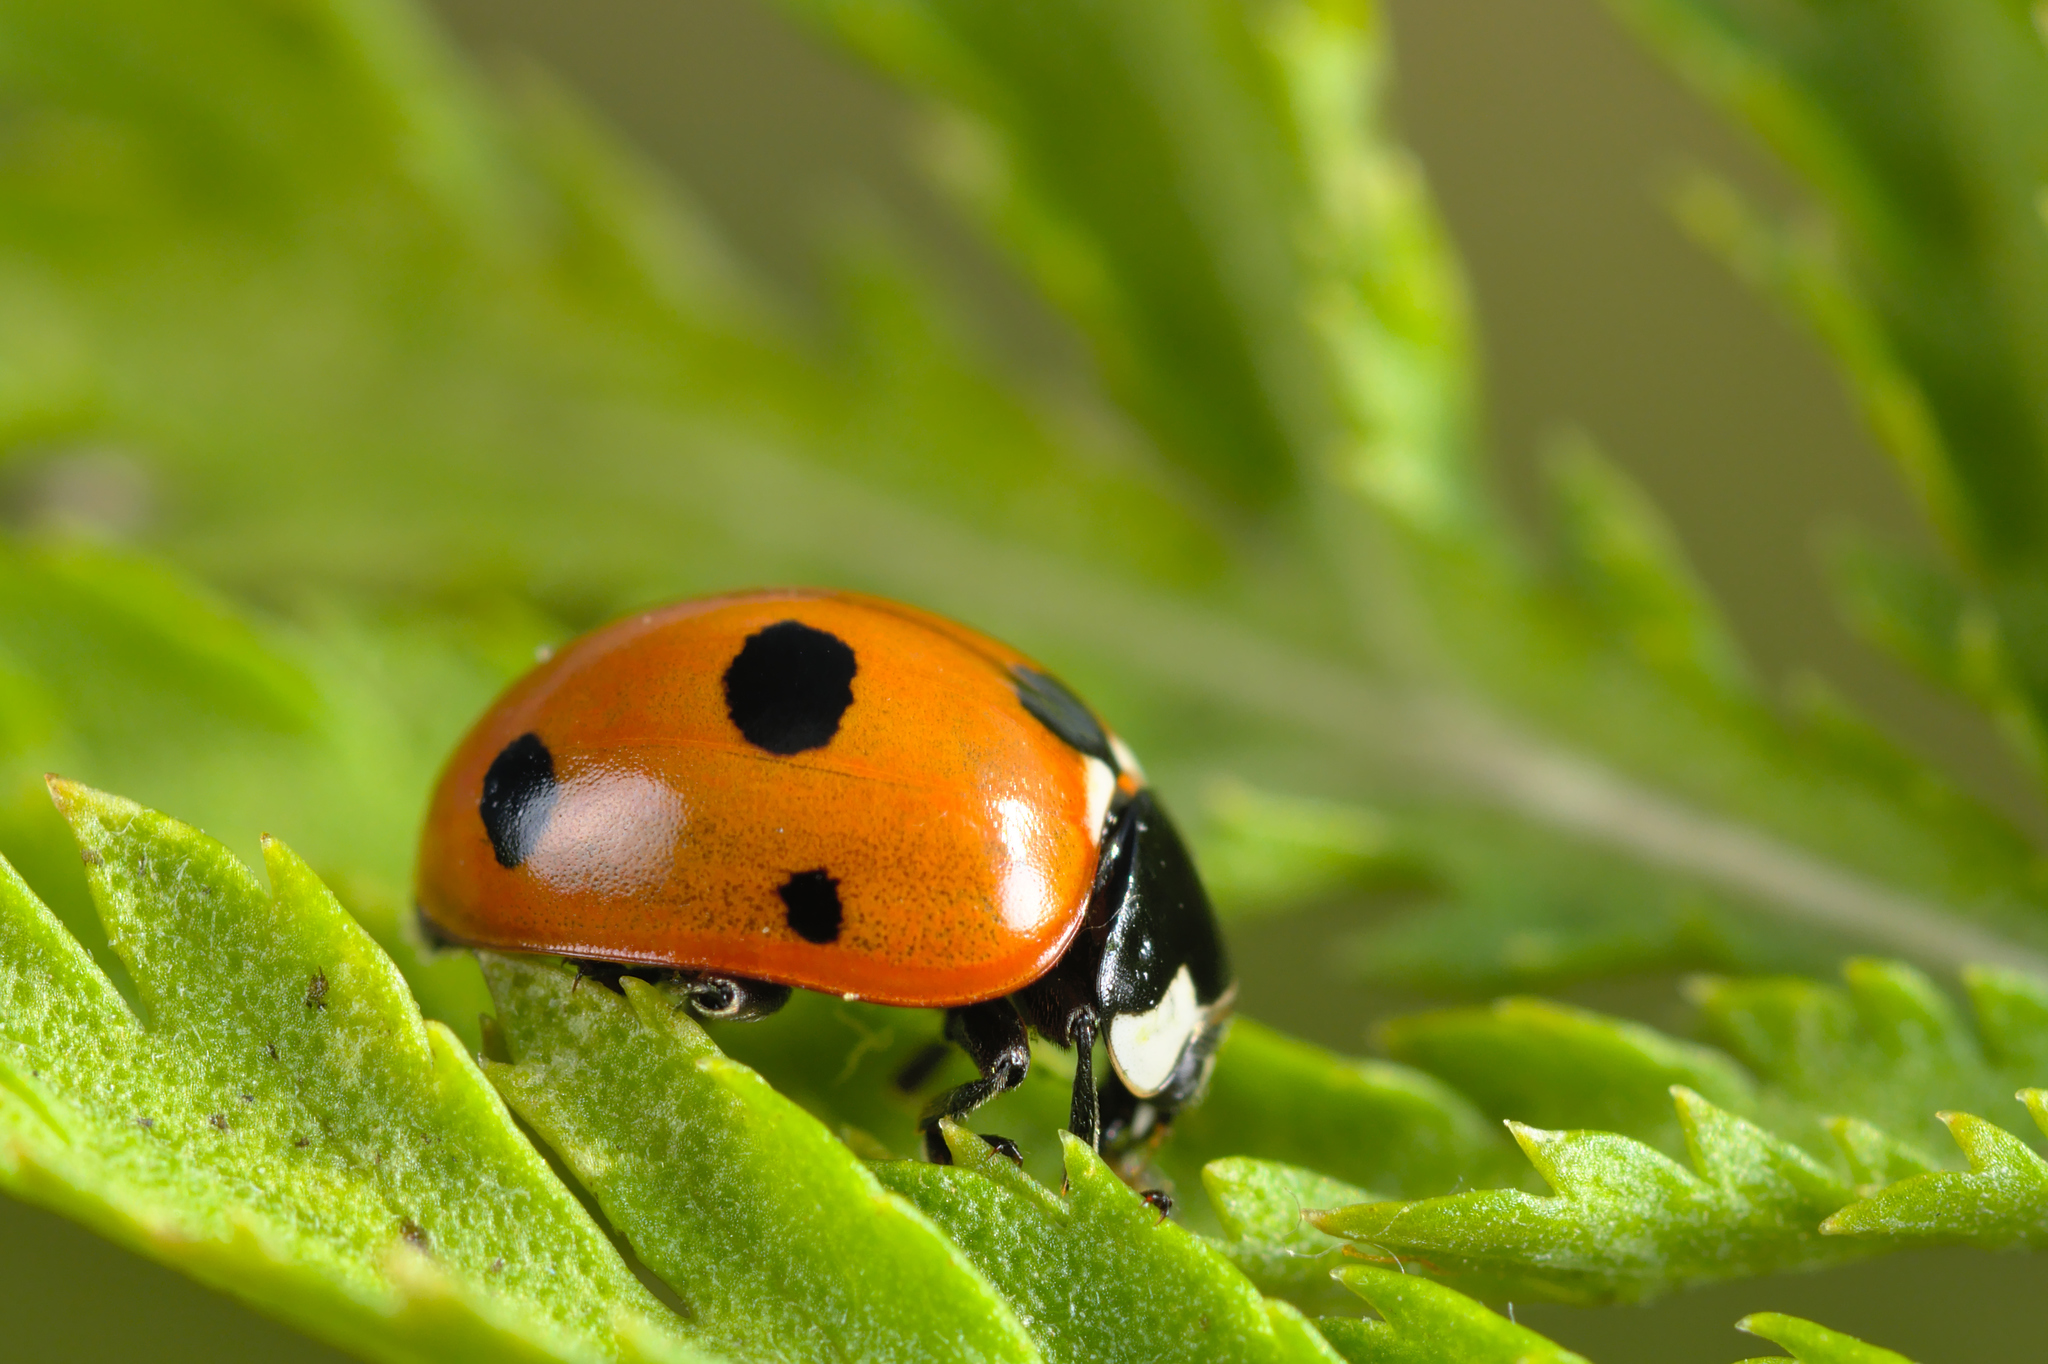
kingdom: Animalia
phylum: Arthropoda
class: Insecta
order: Coleoptera
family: Coccinellidae
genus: Coccinella
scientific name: Coccinella magnifica
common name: Scarce 7-spot ladybird
